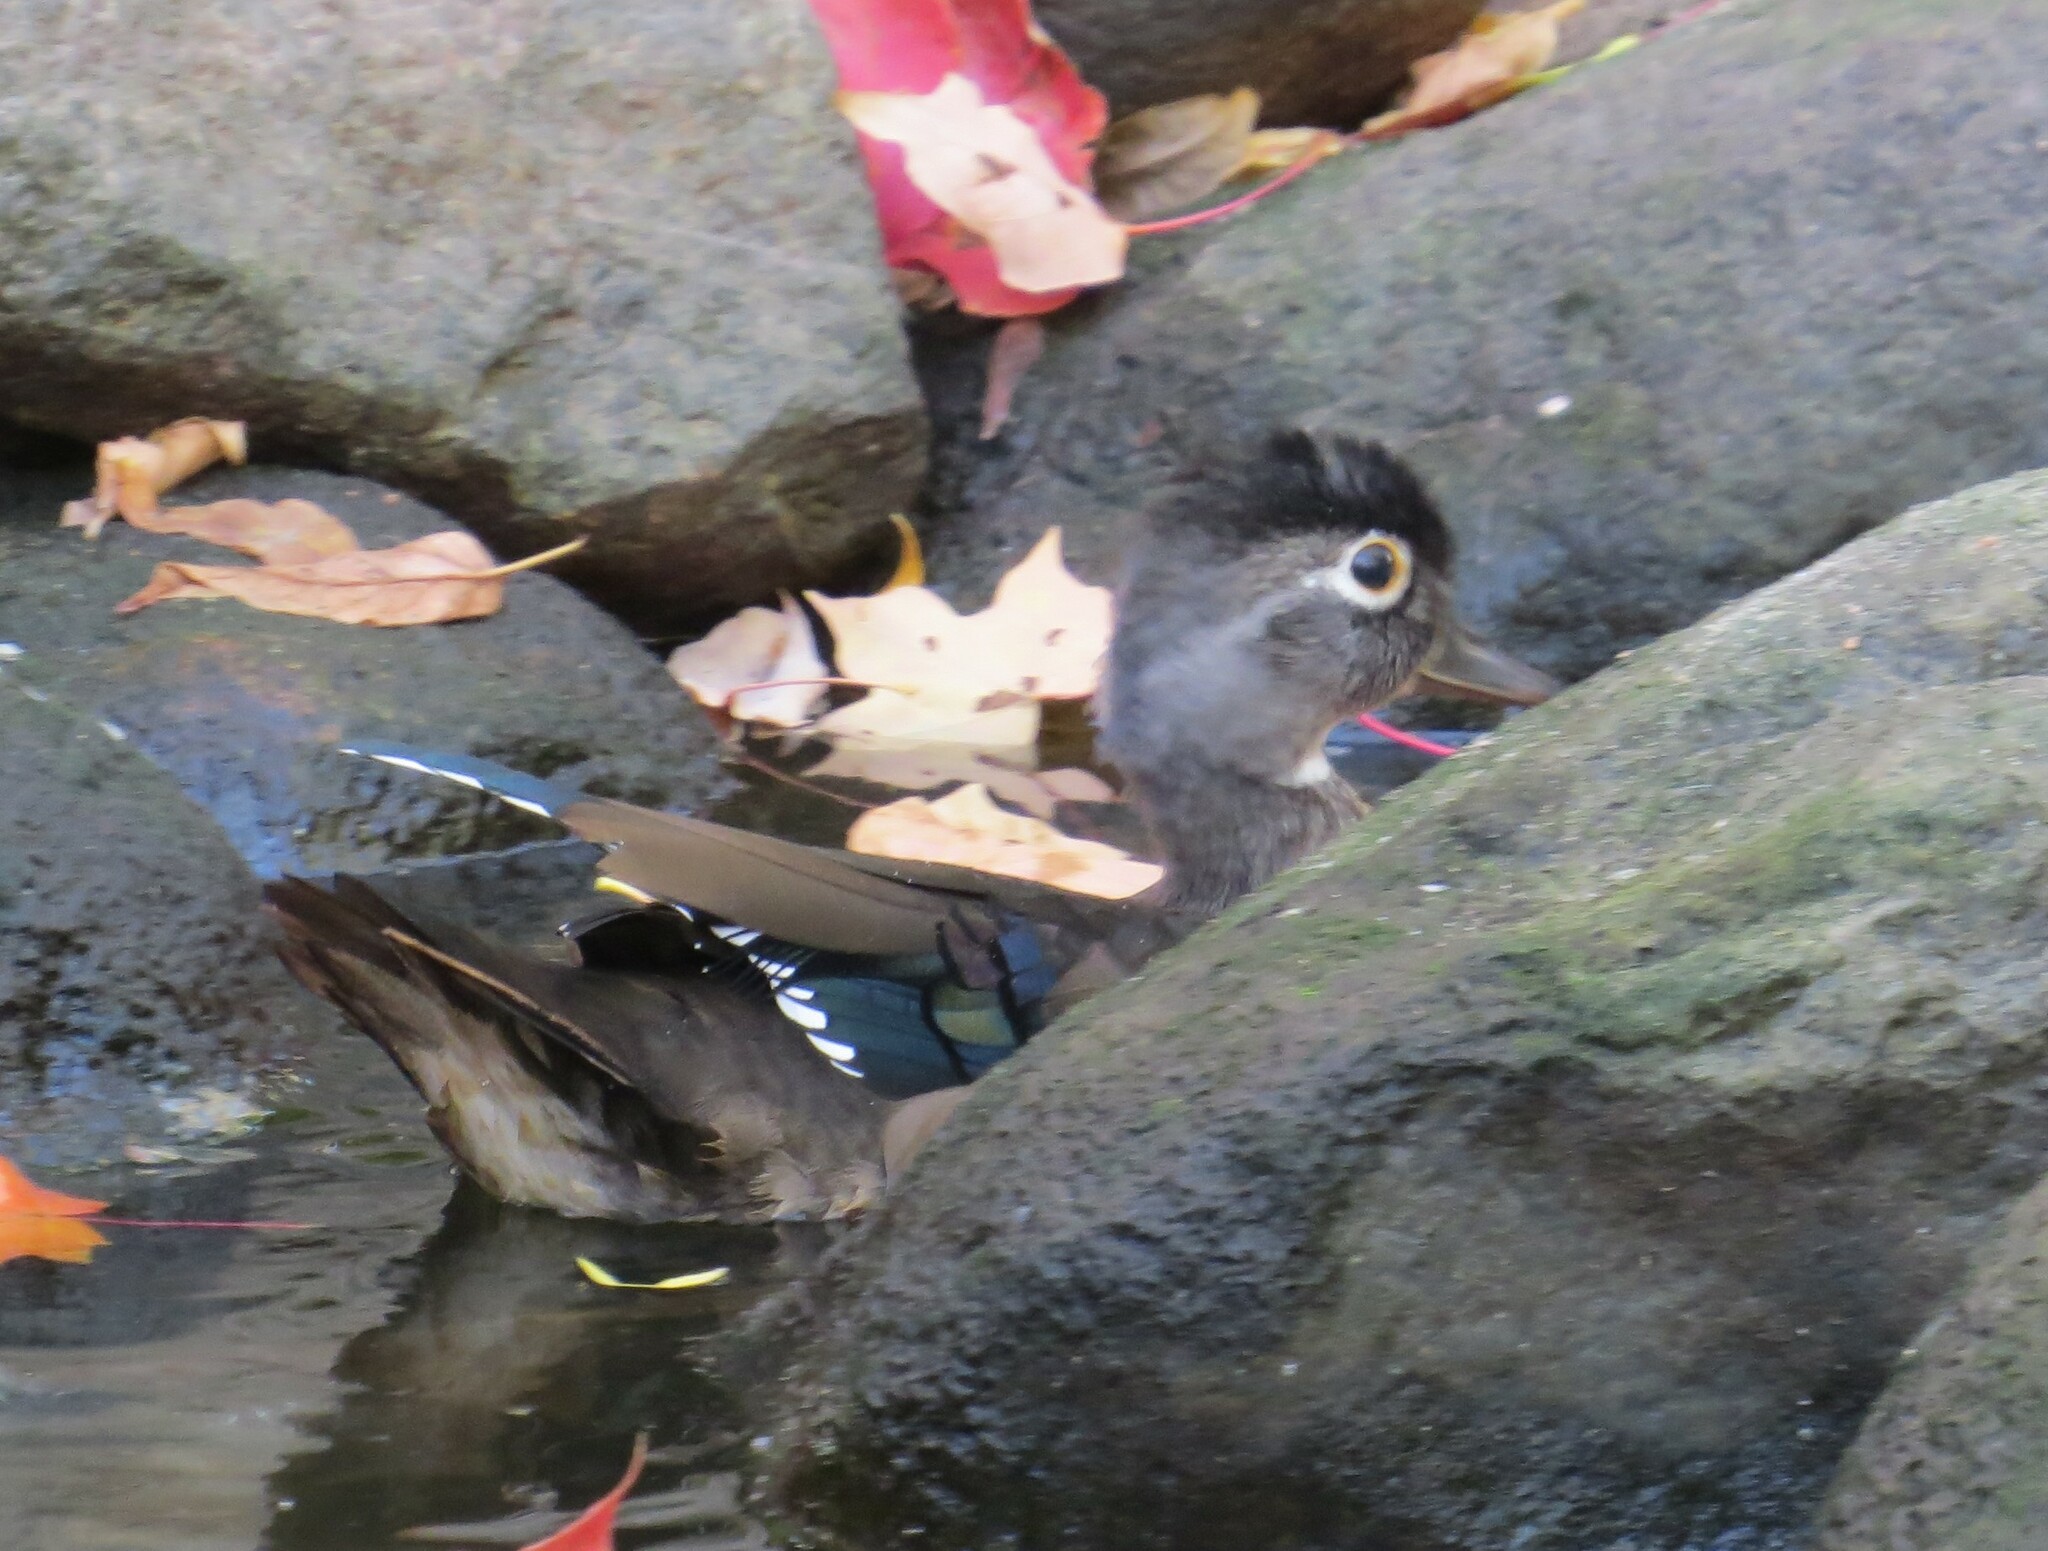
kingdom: Animalia
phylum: Chordata
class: Aves
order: Anseriformes
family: Anatidae
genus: Aix
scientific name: Aix sponsa
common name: Wood duck
